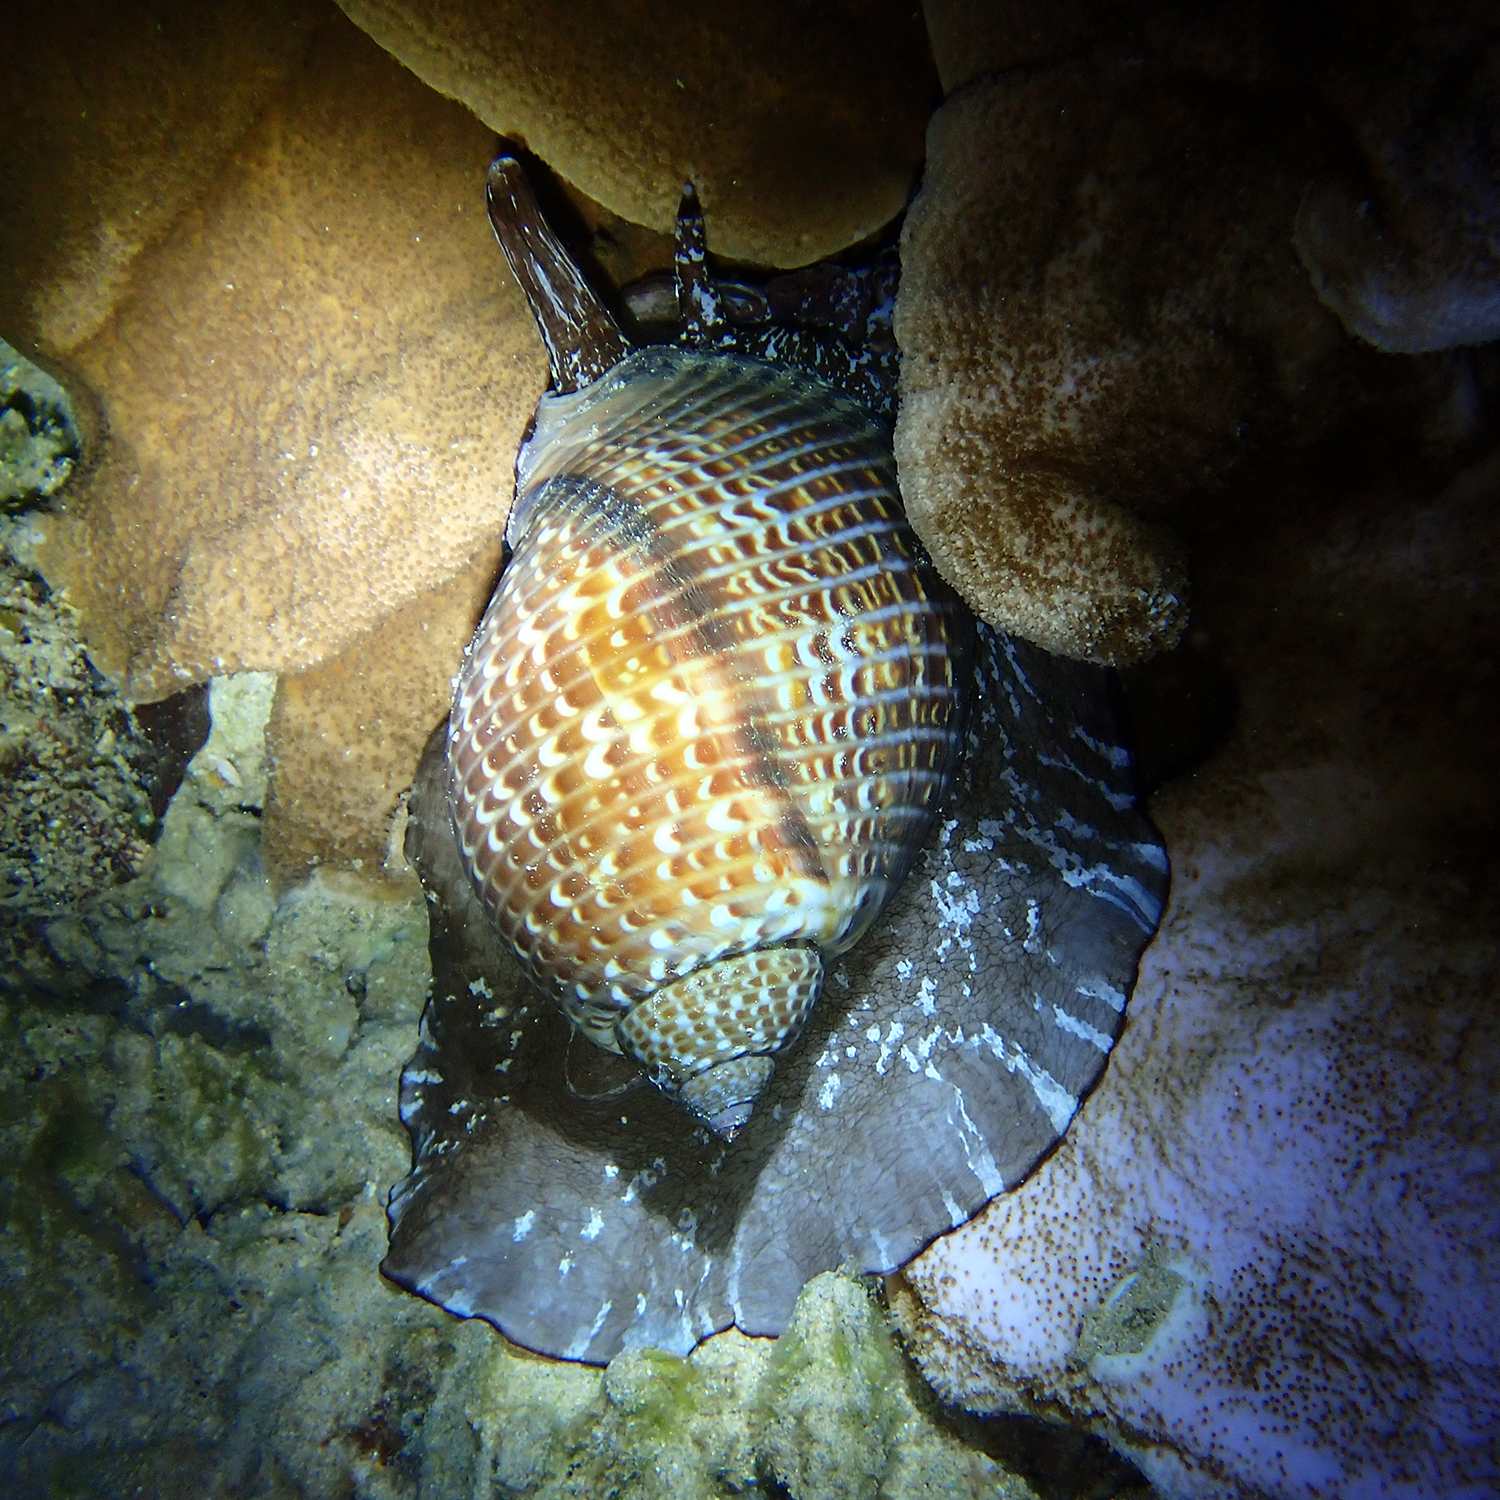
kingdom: Animalia
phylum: Mollusca
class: Gastropoda
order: Littorinimorpha
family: Tonnidae
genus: Tonna
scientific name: Tonna perdix
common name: Pacific partridge tun
